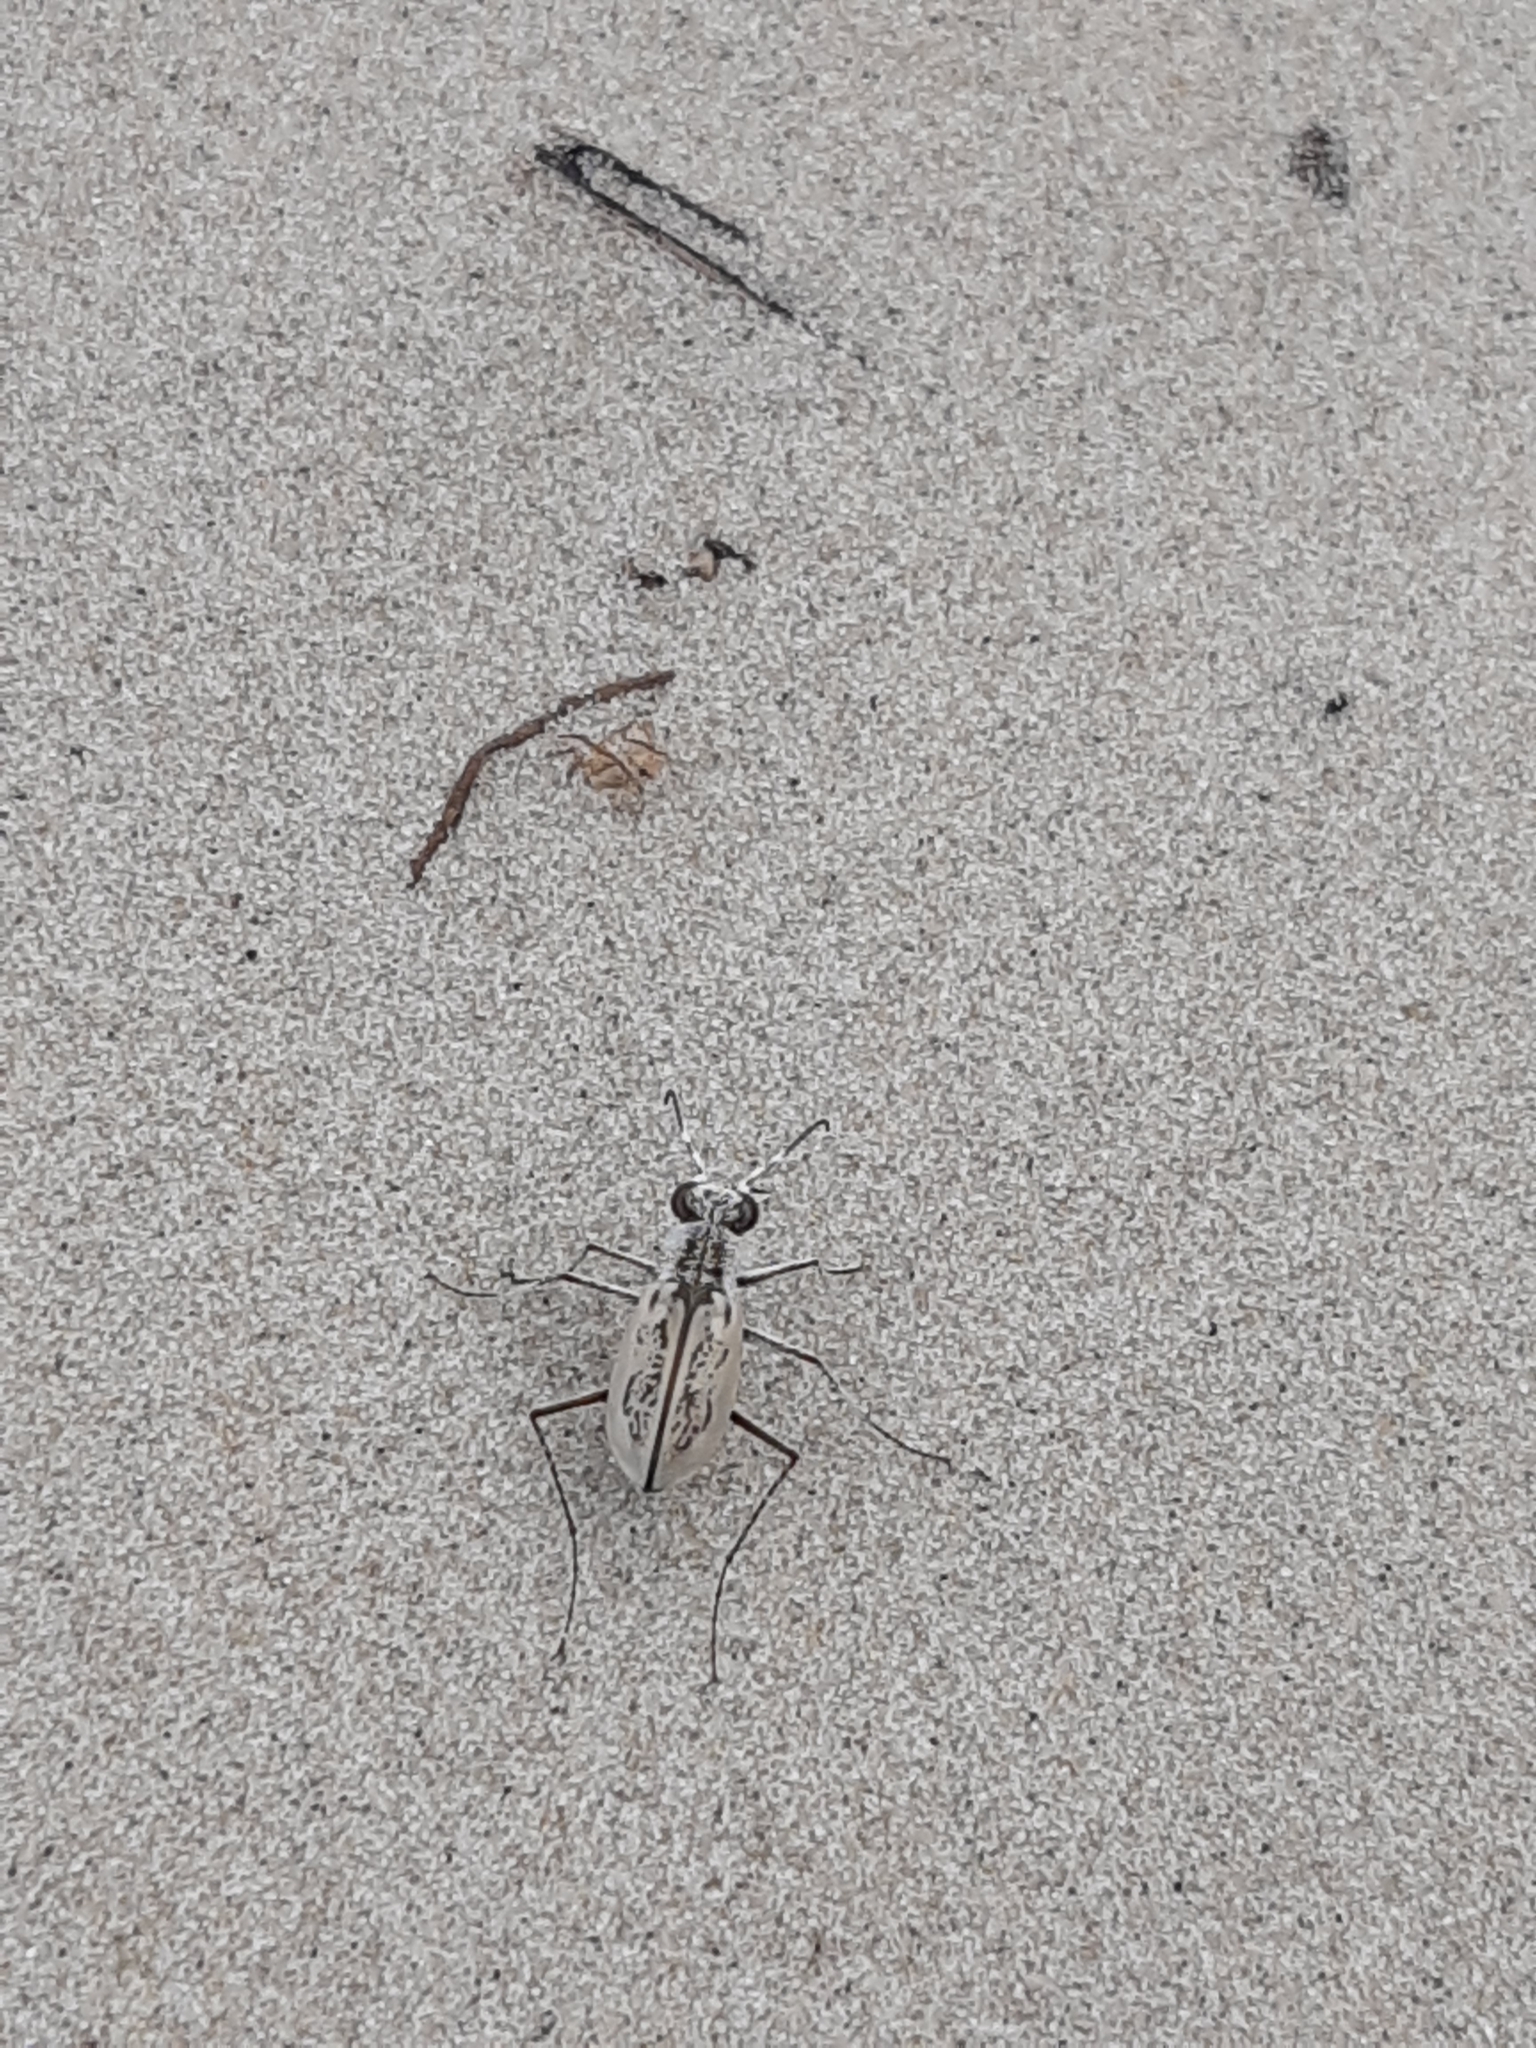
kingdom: Animalia
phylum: Arthropoda
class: Insecta
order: Coleoptera
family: Carabidae
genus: Cylindera
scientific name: Cylindera nivea
